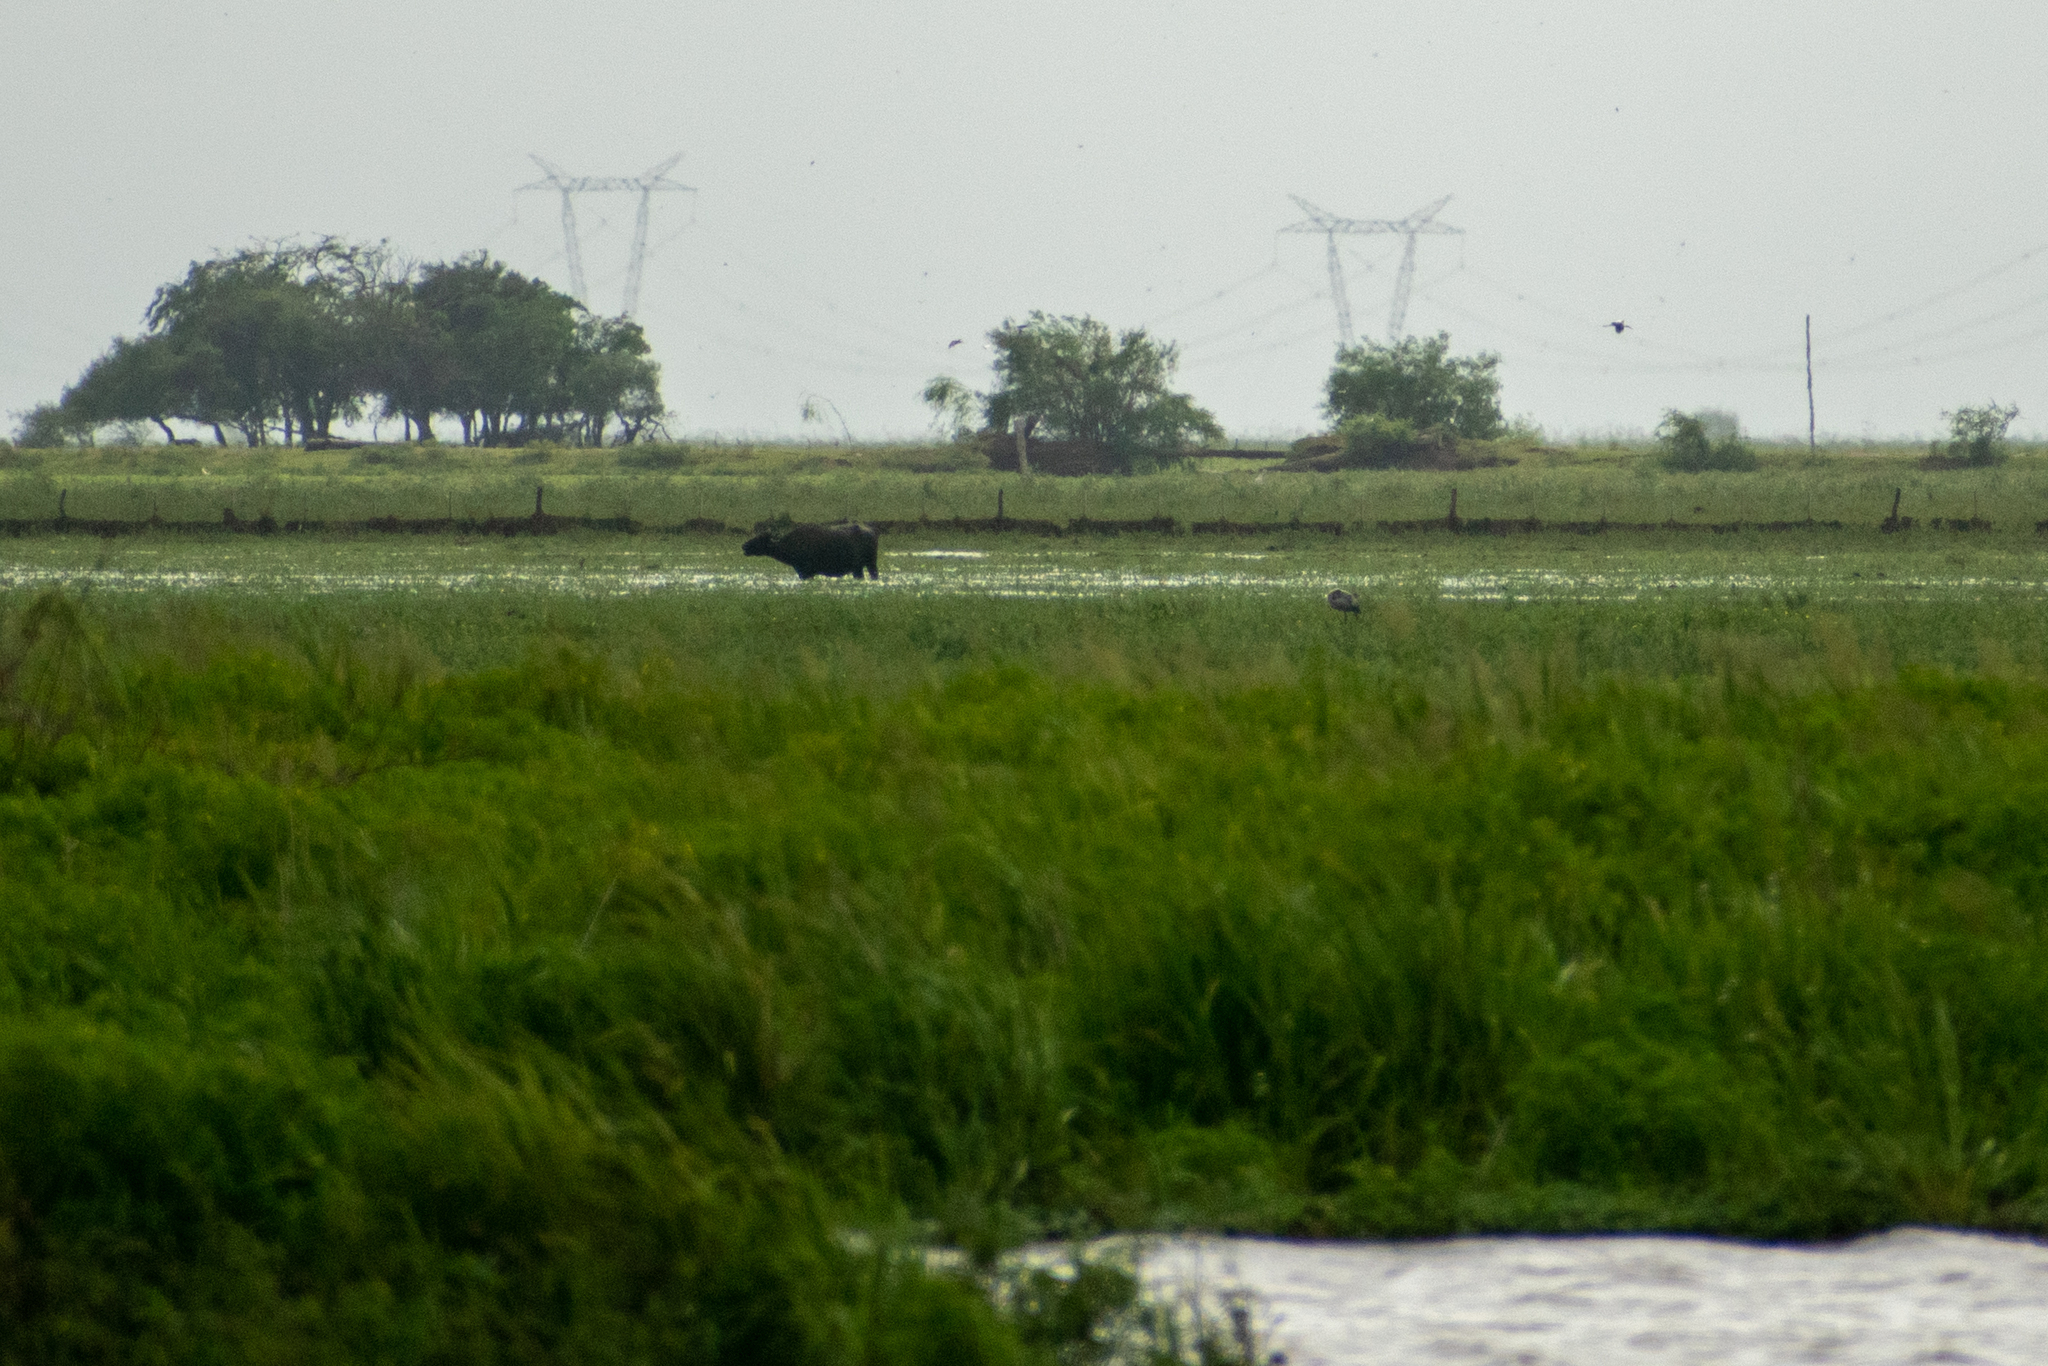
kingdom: Animalia
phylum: Chordata
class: Mammalia
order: Artiodactyla
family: Bovidae
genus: Bubalus
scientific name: Bubalus bubalis
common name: Water buffalo
